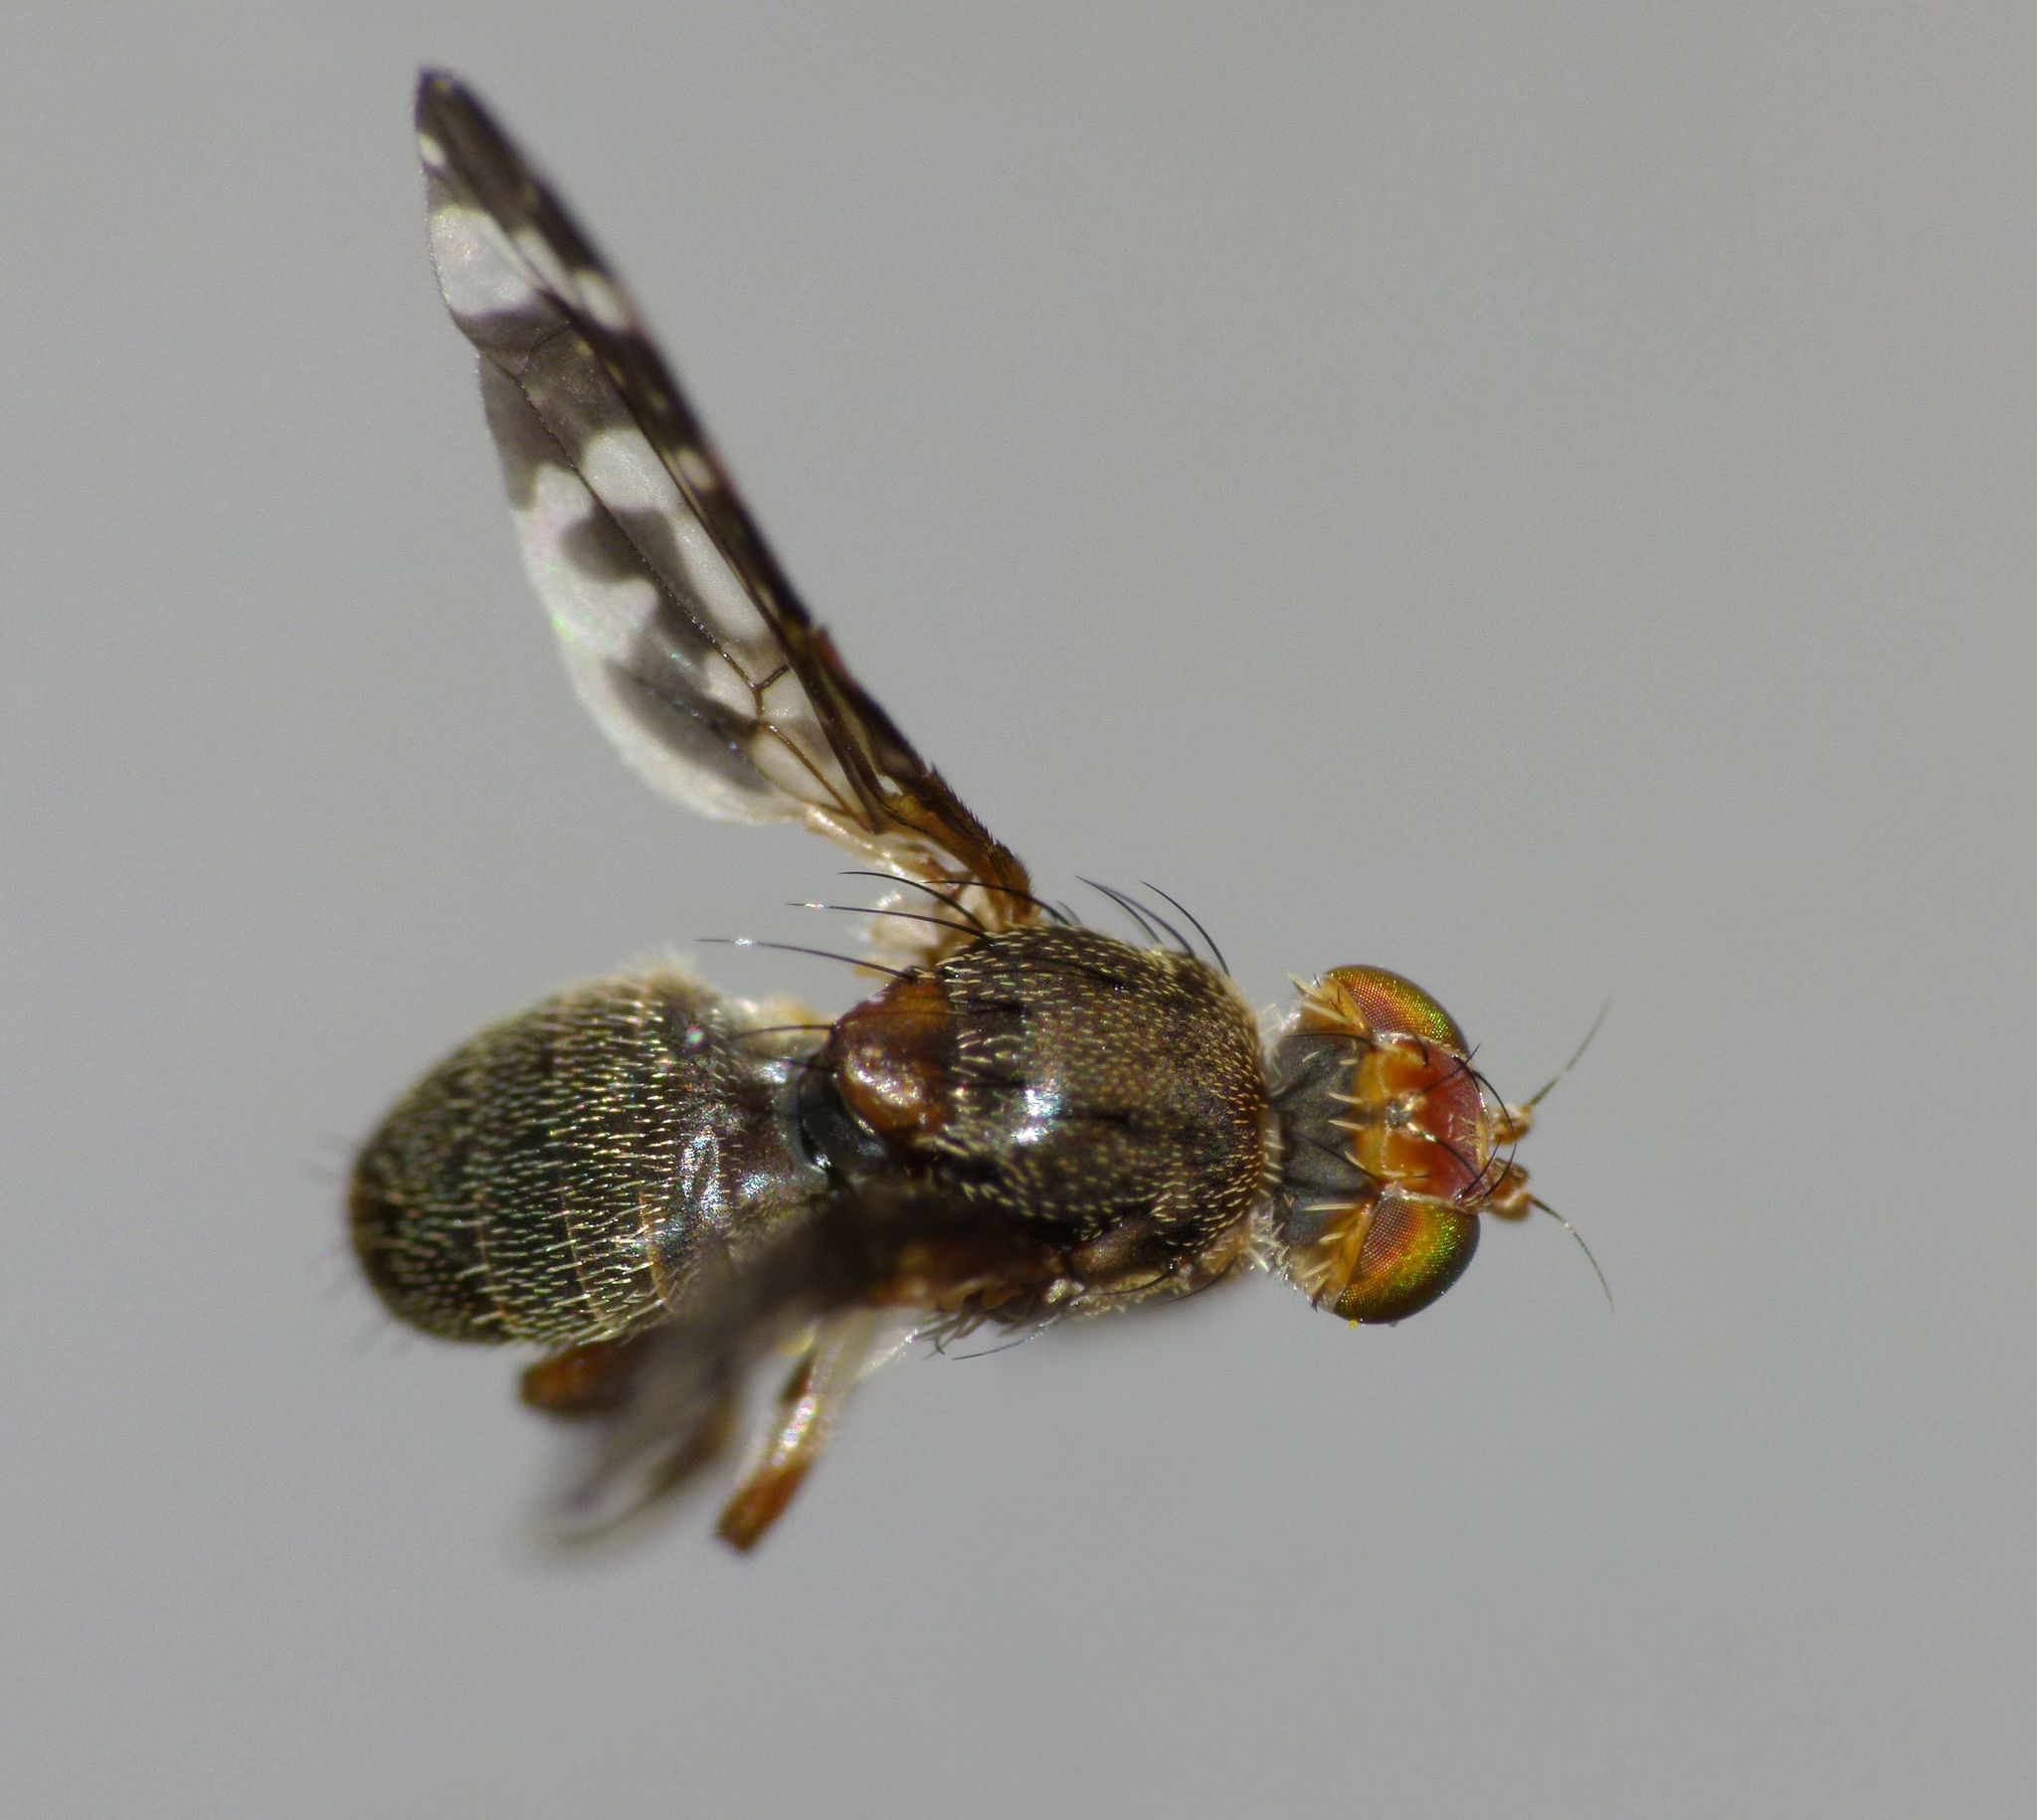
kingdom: Animalia
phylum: Arthropoda
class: Insecta
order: Diptera
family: Tephritidae
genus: Sphenella
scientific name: Sphenella
